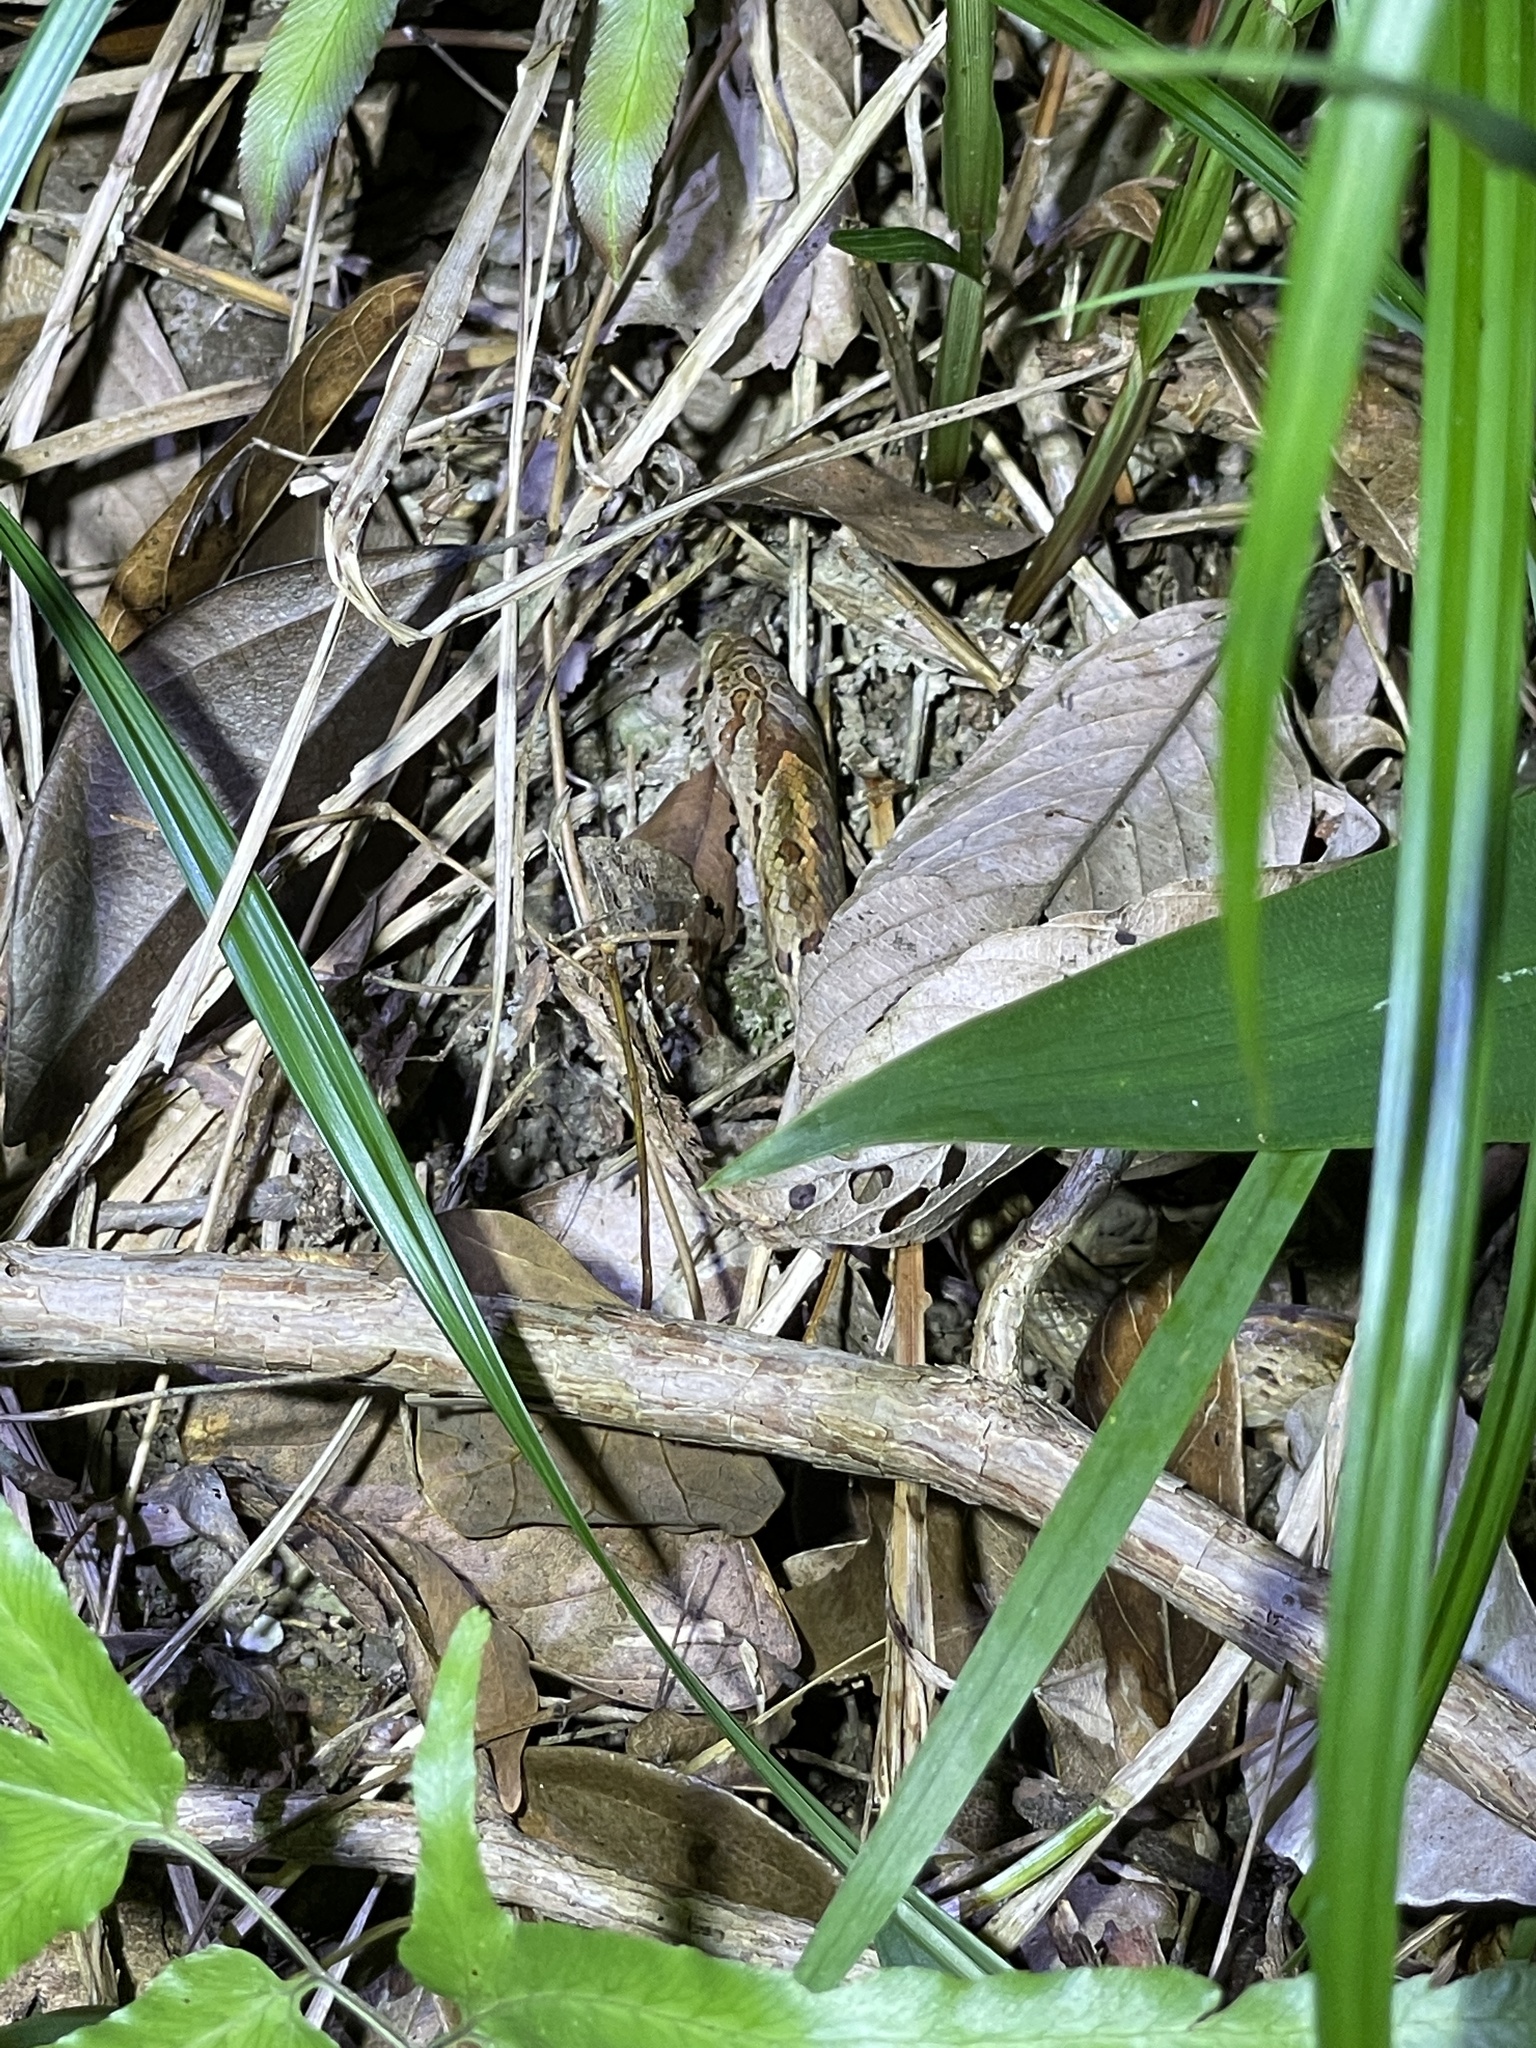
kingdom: Animalia
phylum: Chordata
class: Squamata
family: Colubridae
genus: Oligodon
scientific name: Oligodon formosanus
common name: Formosa kukri snake
